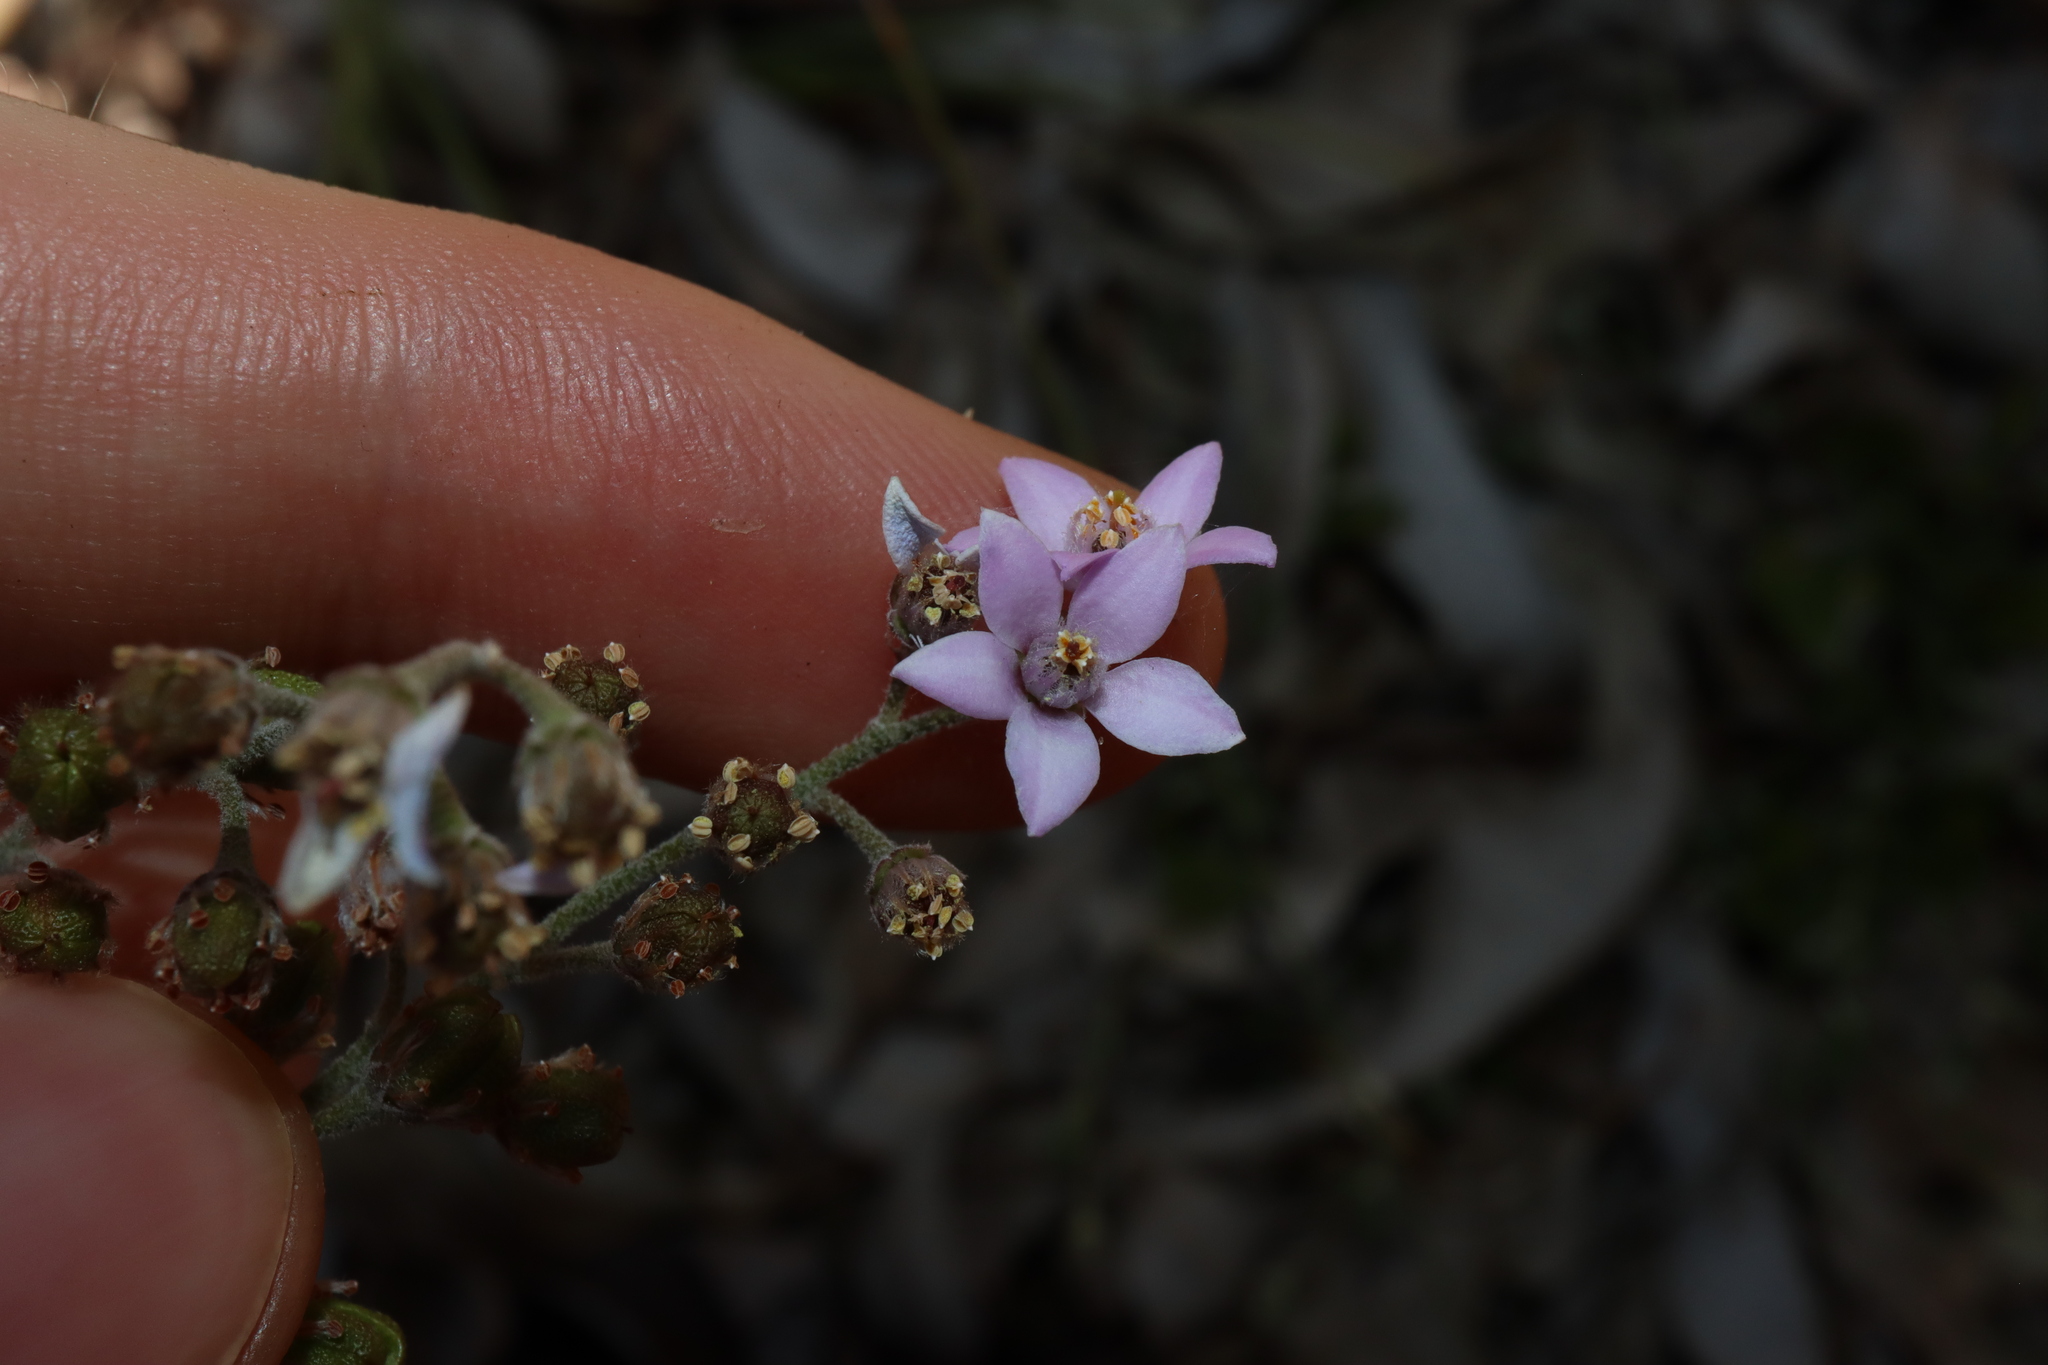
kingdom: Plantae
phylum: Tracheophyta
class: Magnoliopsida
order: Sapindales
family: Rutaceae
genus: Philotheca
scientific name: Philotheca spicata
